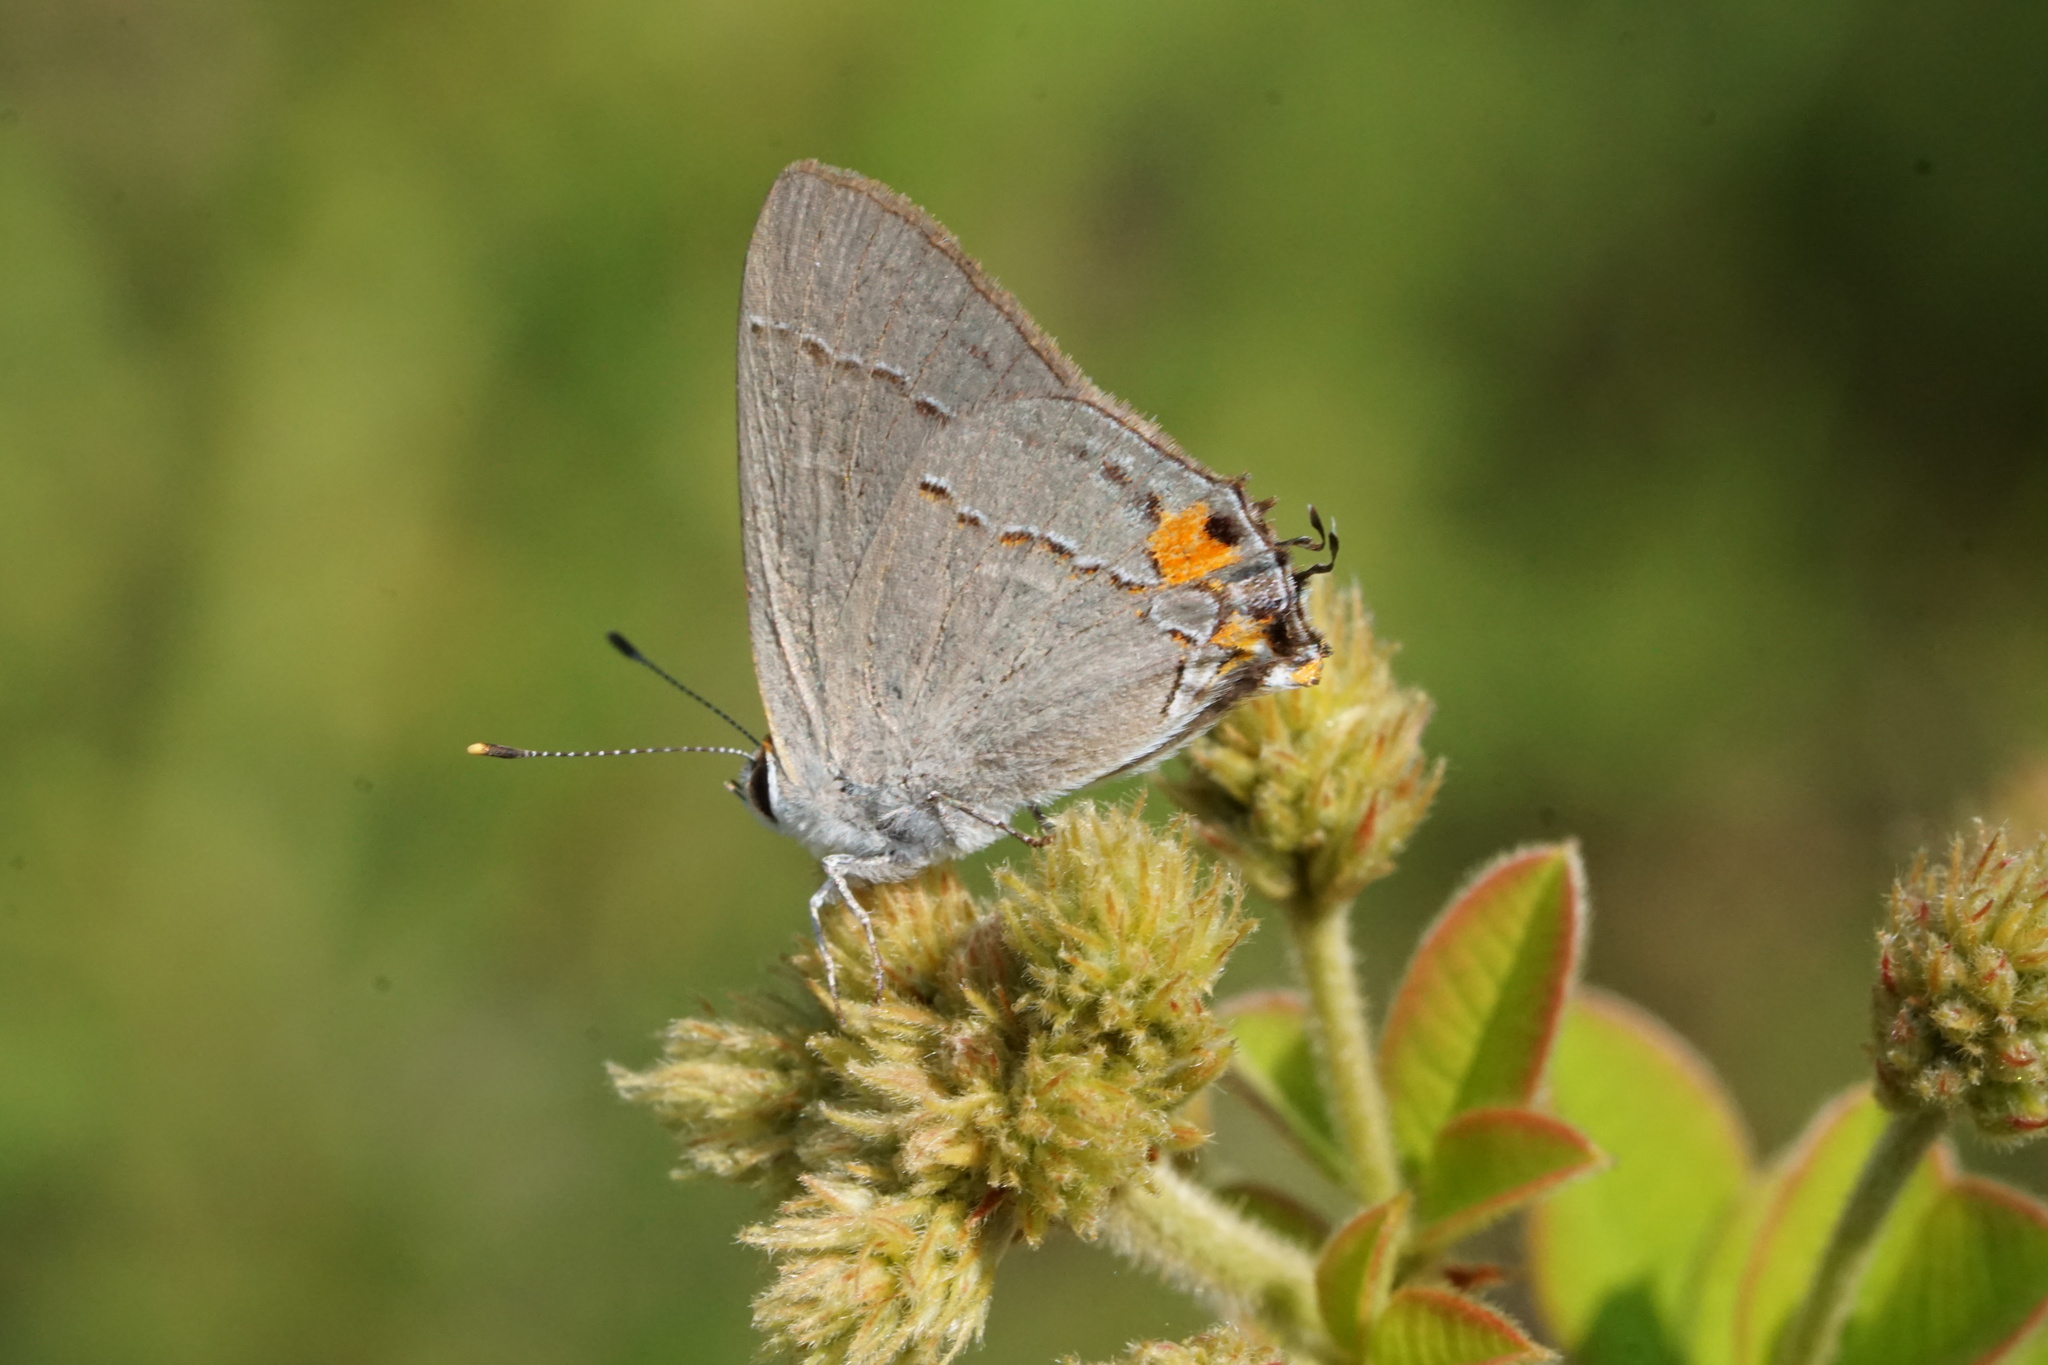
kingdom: Animalia
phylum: Arthropoda
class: Insecta
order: Lepidoptera
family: Lycaenidae
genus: Strymon
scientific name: Strymon melinus
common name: Gray hairstreak
